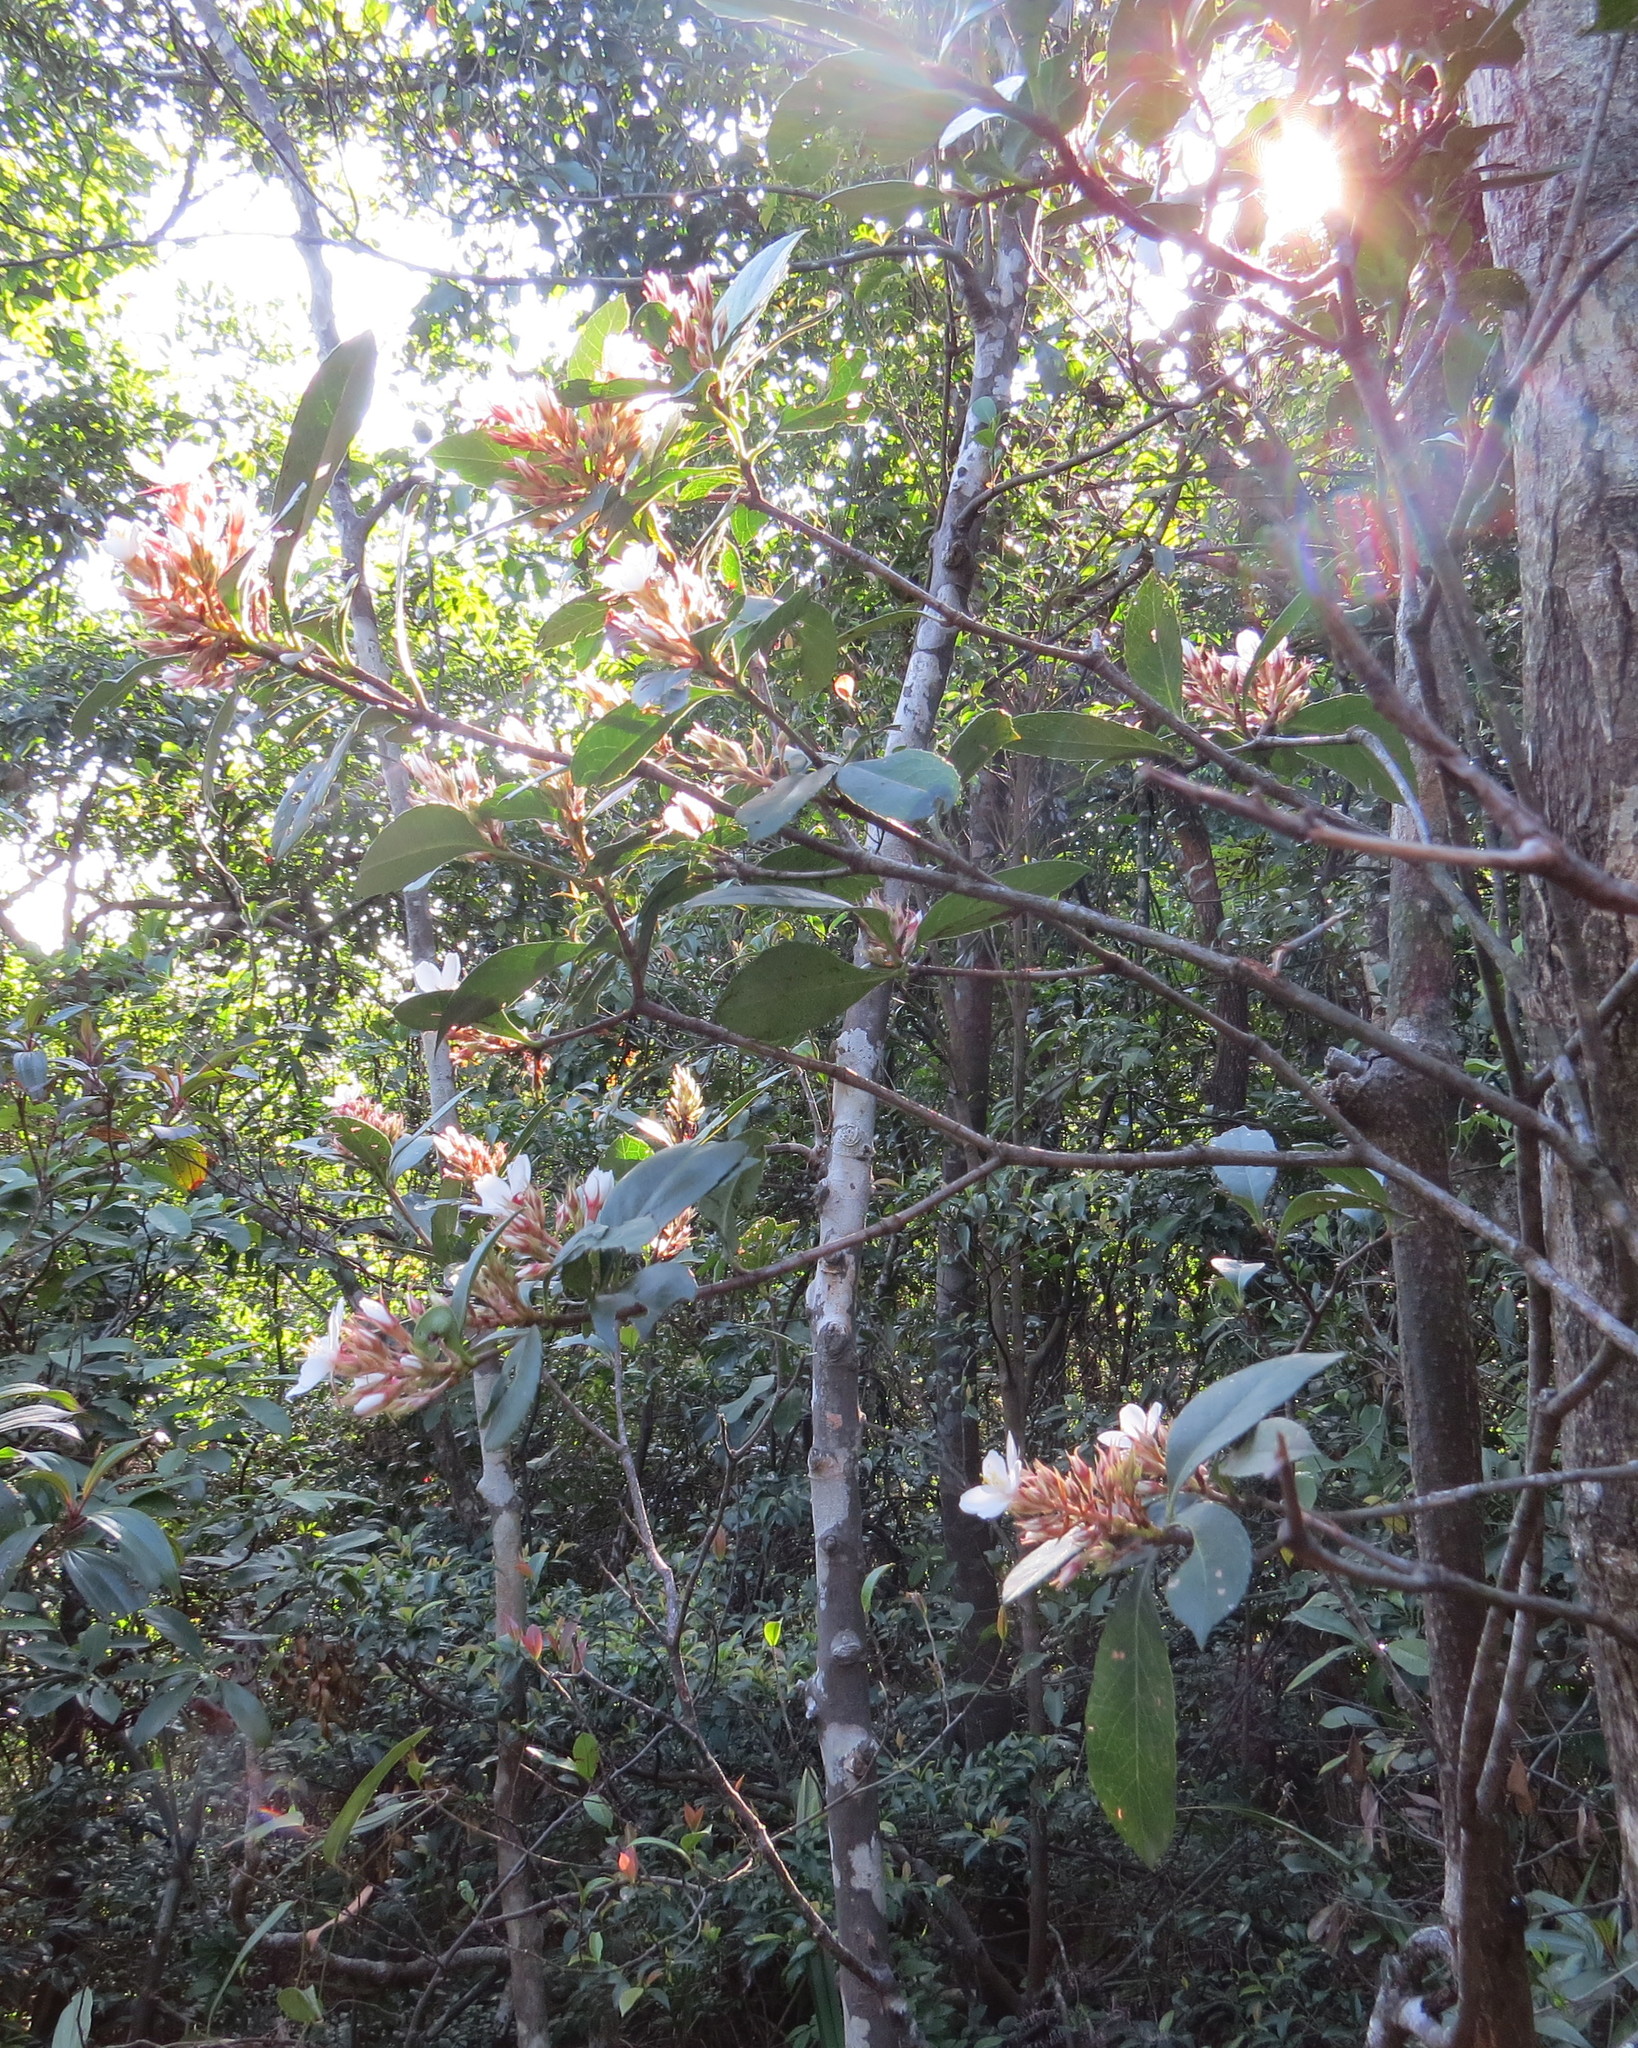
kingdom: Plantae
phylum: Tracheophyta
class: Magnoliopsida
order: Rosales
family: Rosaceae
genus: Rhaphiolepis
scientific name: Rhaphiolepis indica
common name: India-hawthorn
